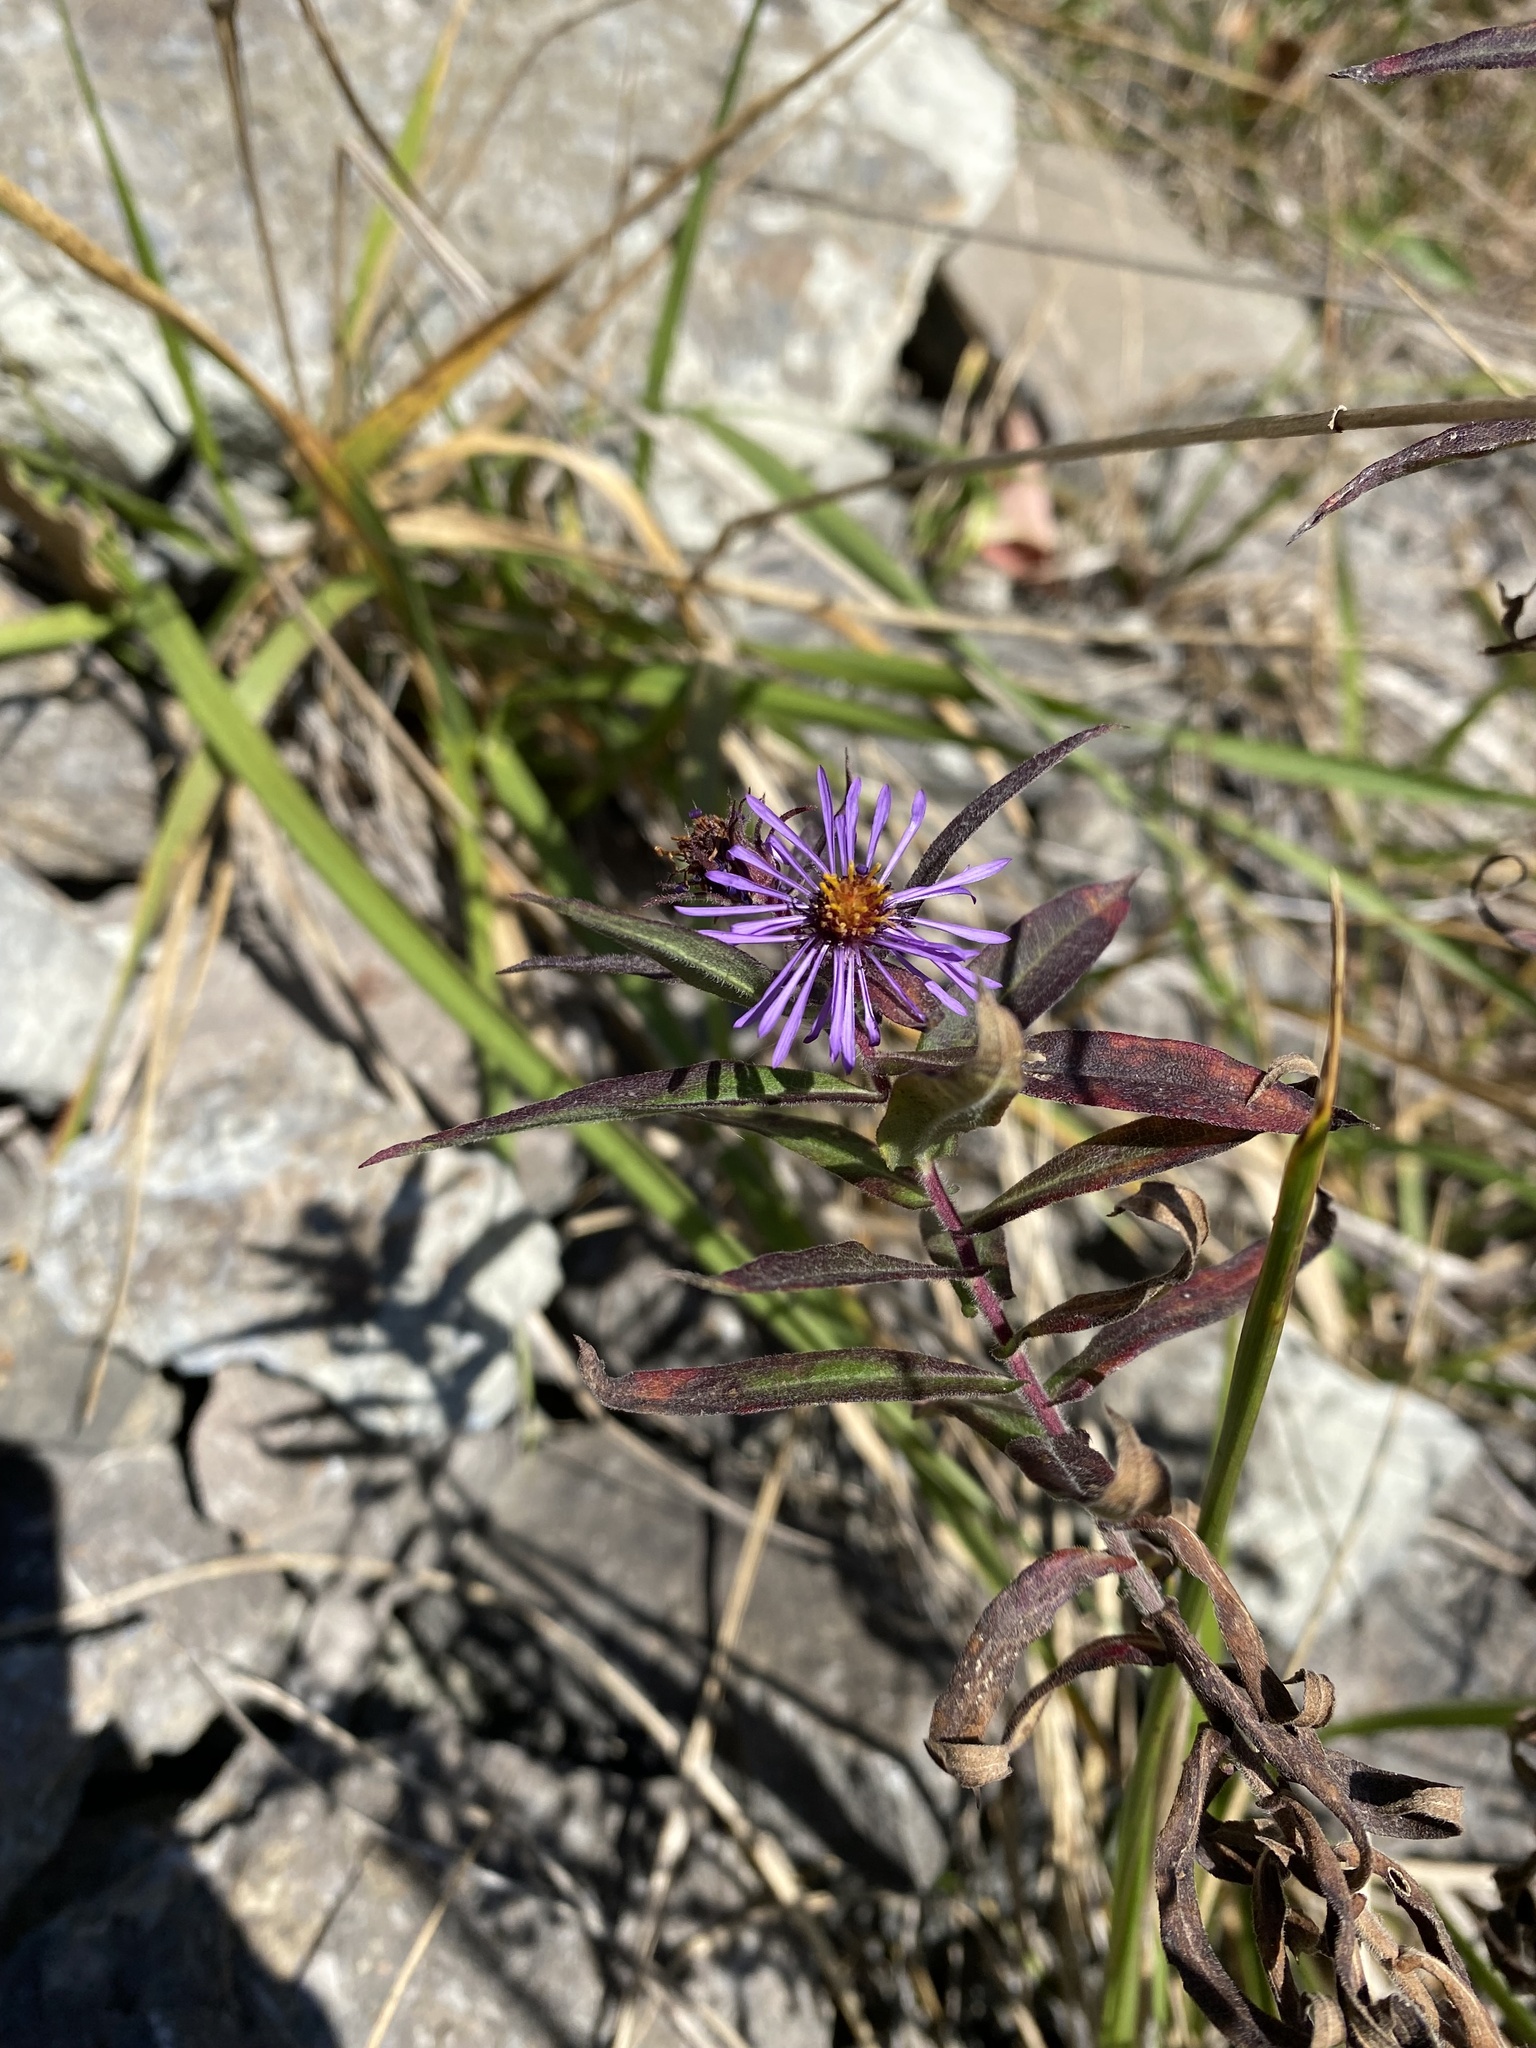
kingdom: Plantae
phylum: Tracheophyta
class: Magnoliopsida
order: Asterales
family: Asteraceae
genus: Symphyotrichum
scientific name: Symphyotrichum novae-angliae
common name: Michaelmas daisy
